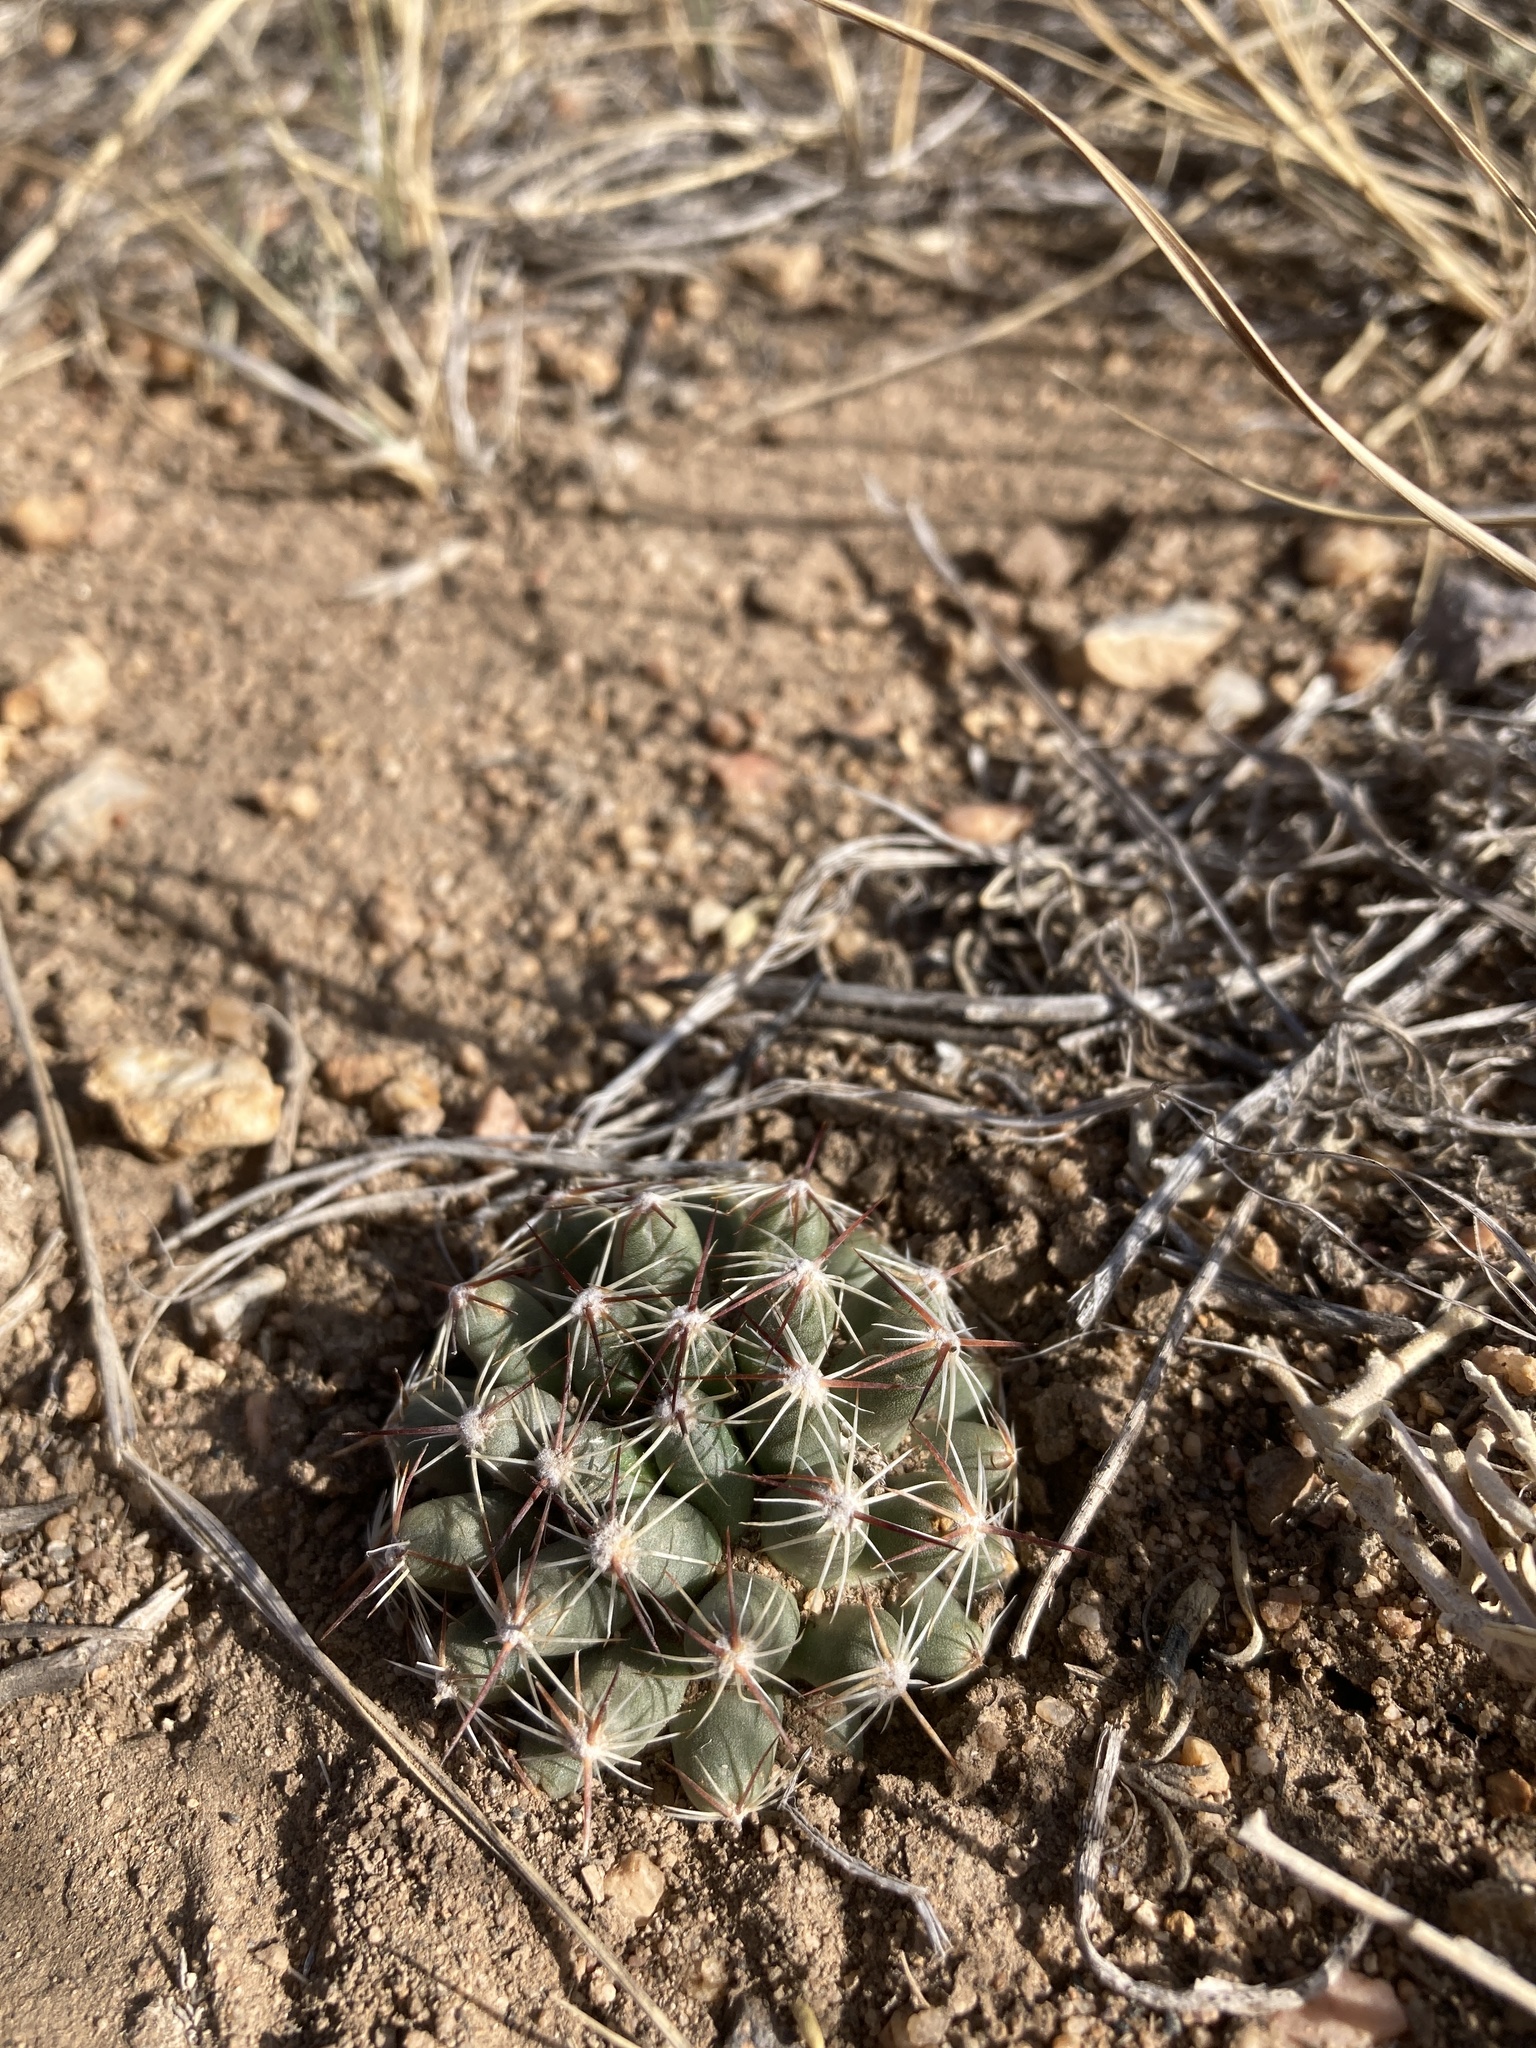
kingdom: Plantae
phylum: Tracheophyta
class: Magnoliopsida
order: Caryophyllales
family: Cactaceae
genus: Pelecyphora
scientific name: Pelecyphora vivipara
